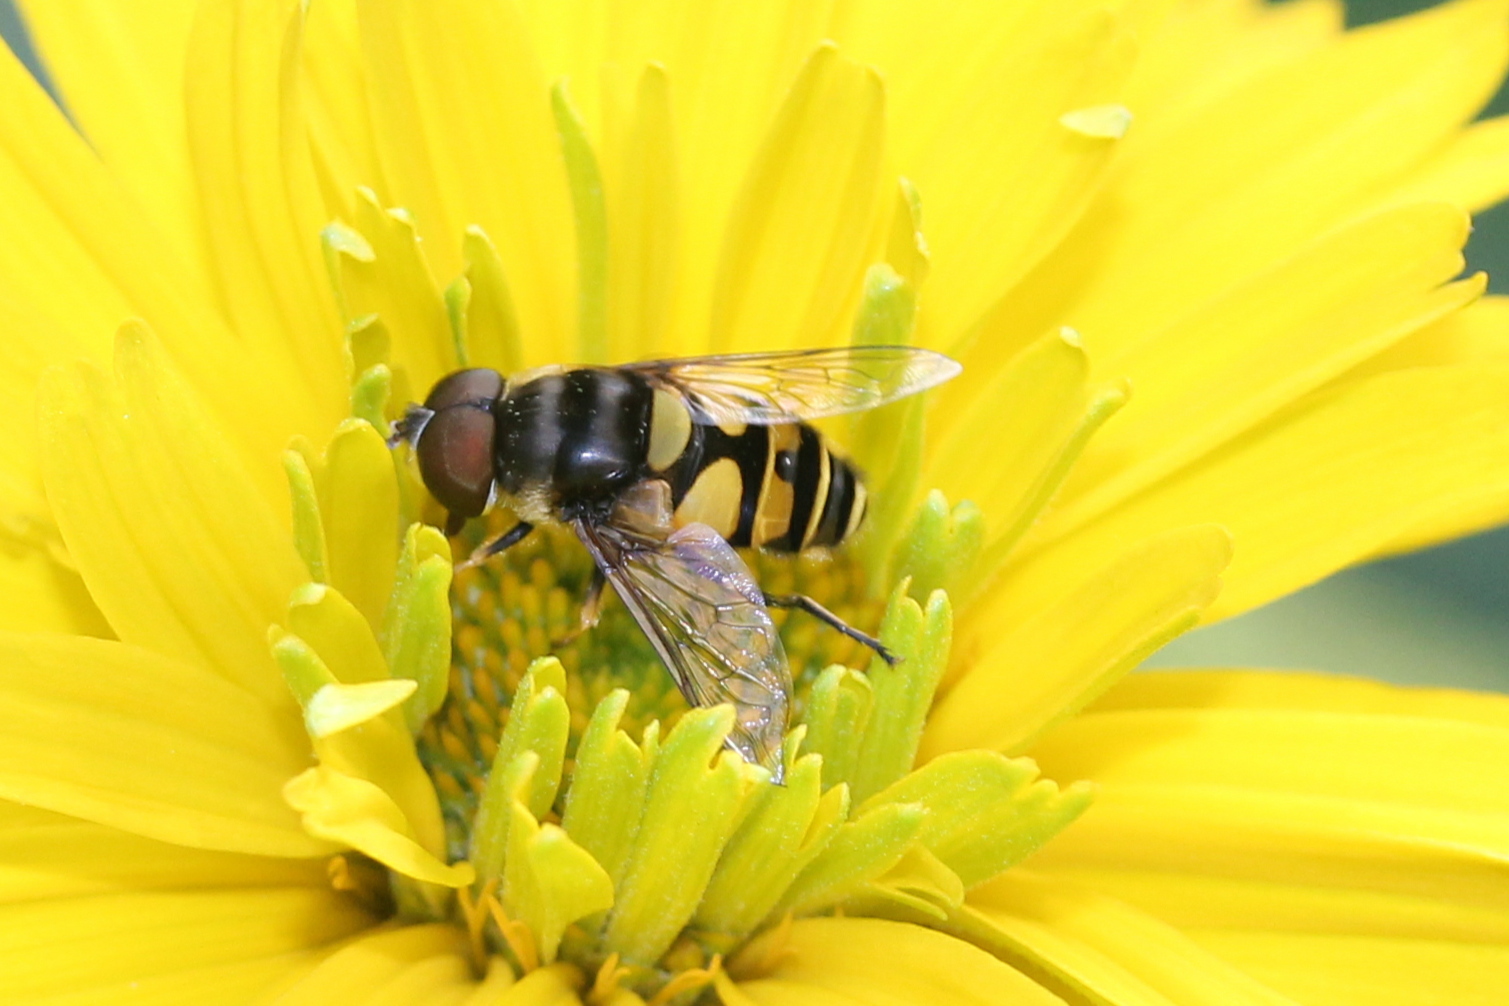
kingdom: Animalia
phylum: Arthropoda
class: Insecta
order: Diptera
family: Syrphidae
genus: Eristalis
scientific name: Eristalis transversa
